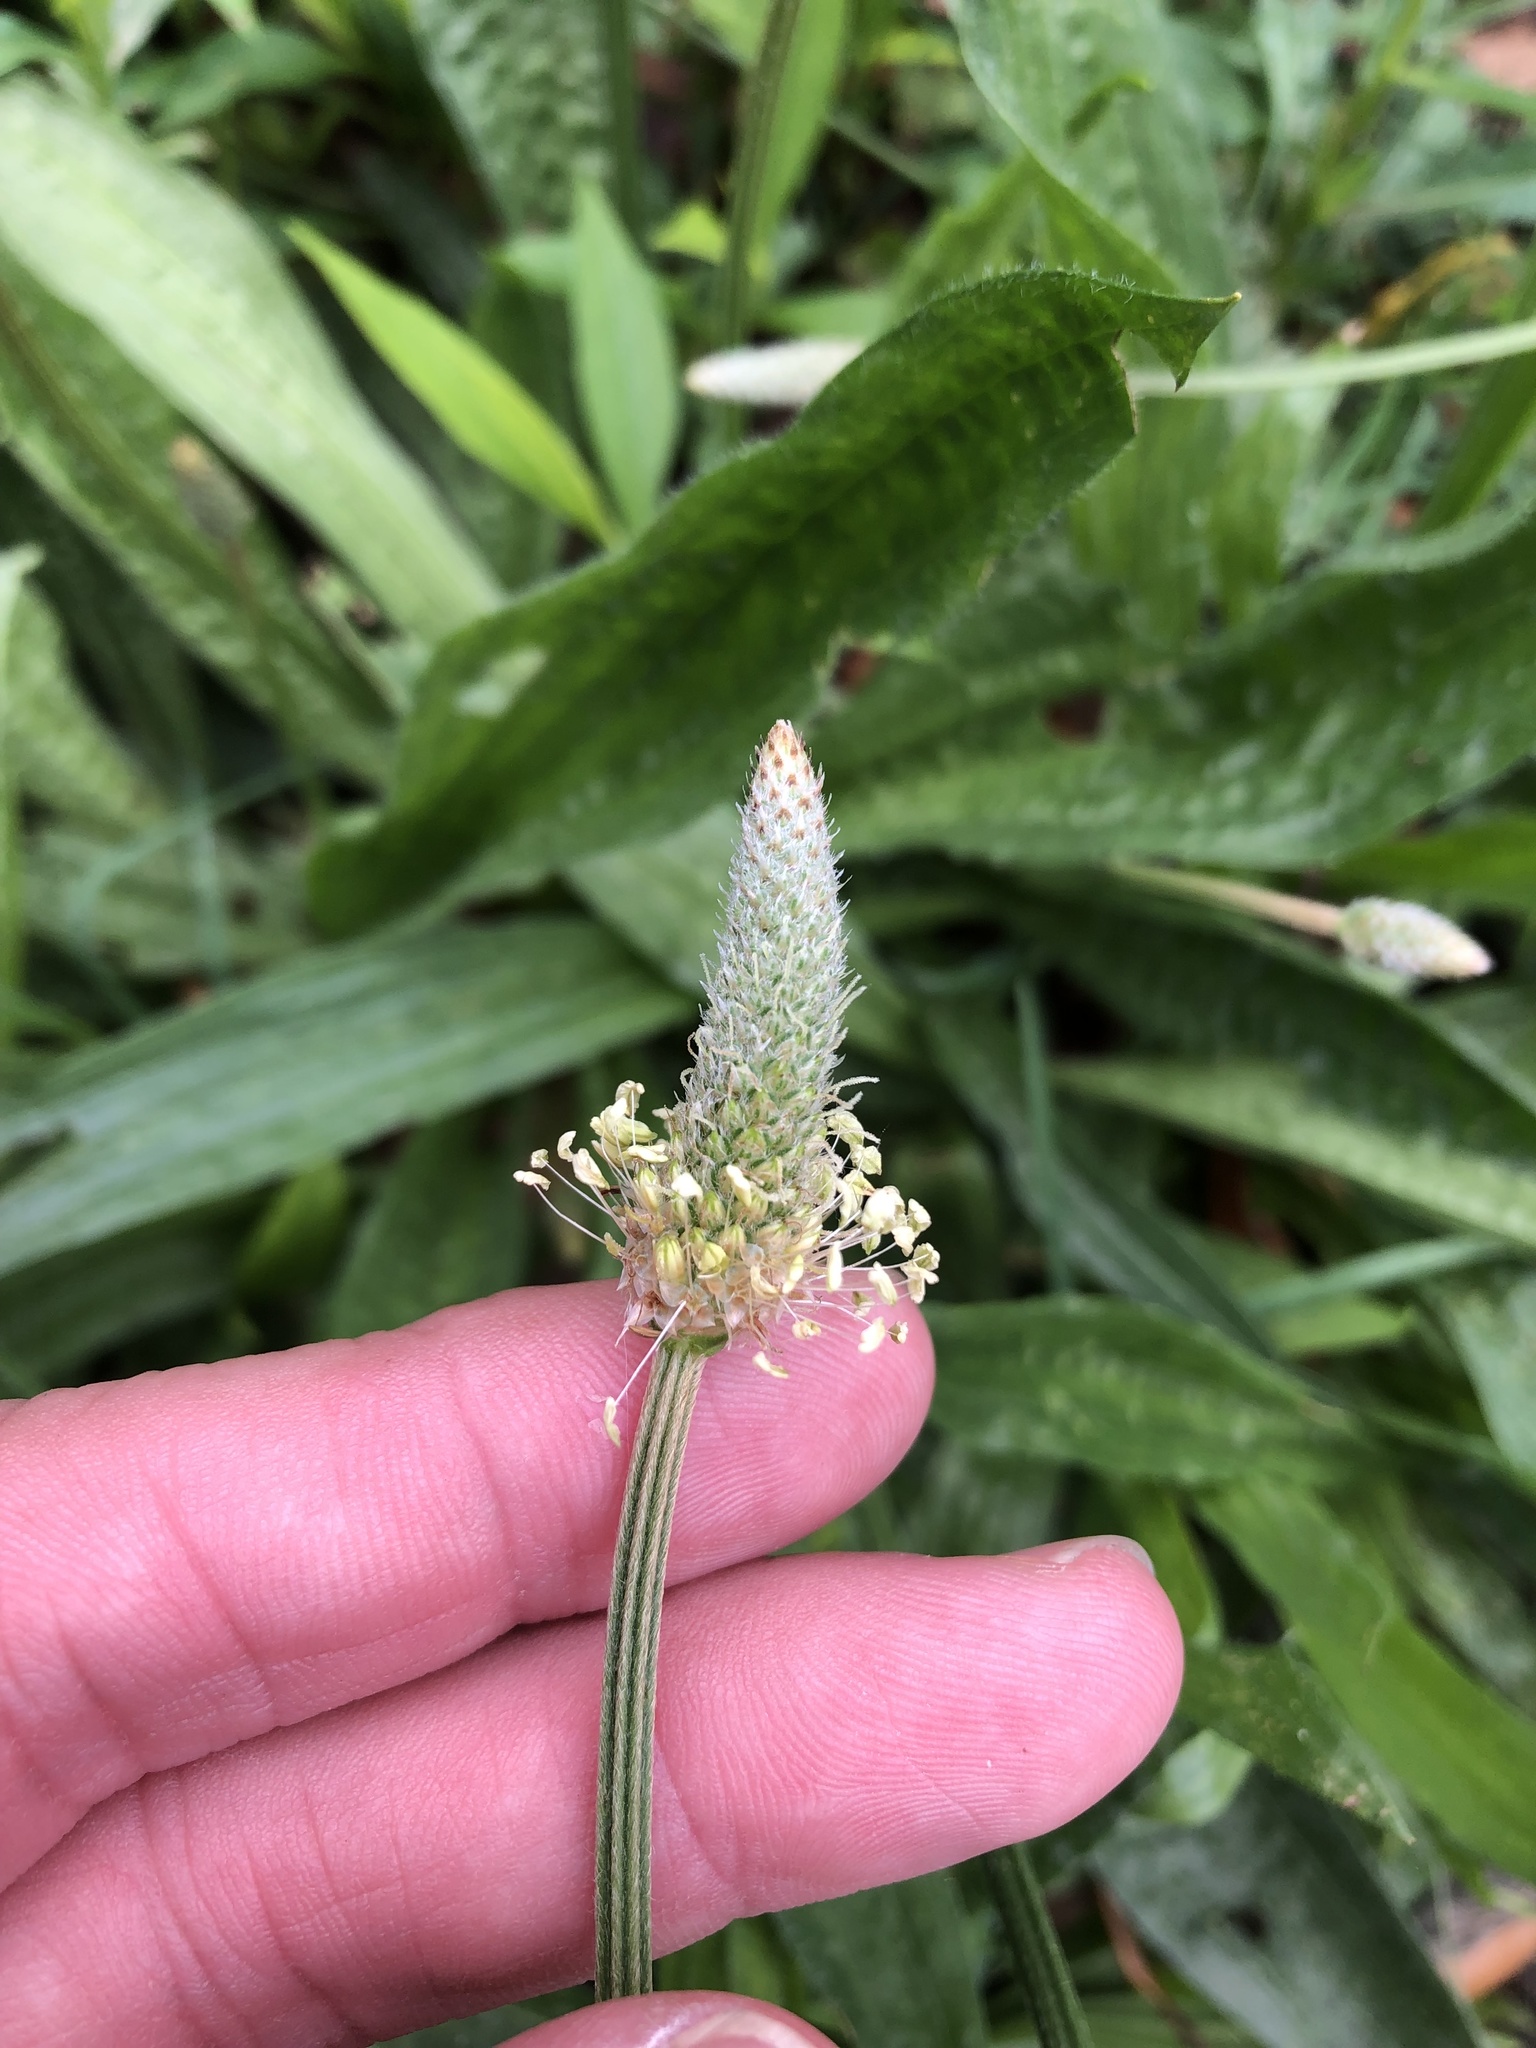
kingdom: Plantae
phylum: Tracheophyta
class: Magnoliopsida
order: Lamiales
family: Plantaginaceae
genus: Plantago
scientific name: Plantago lanceolata
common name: Ribwort plantain
